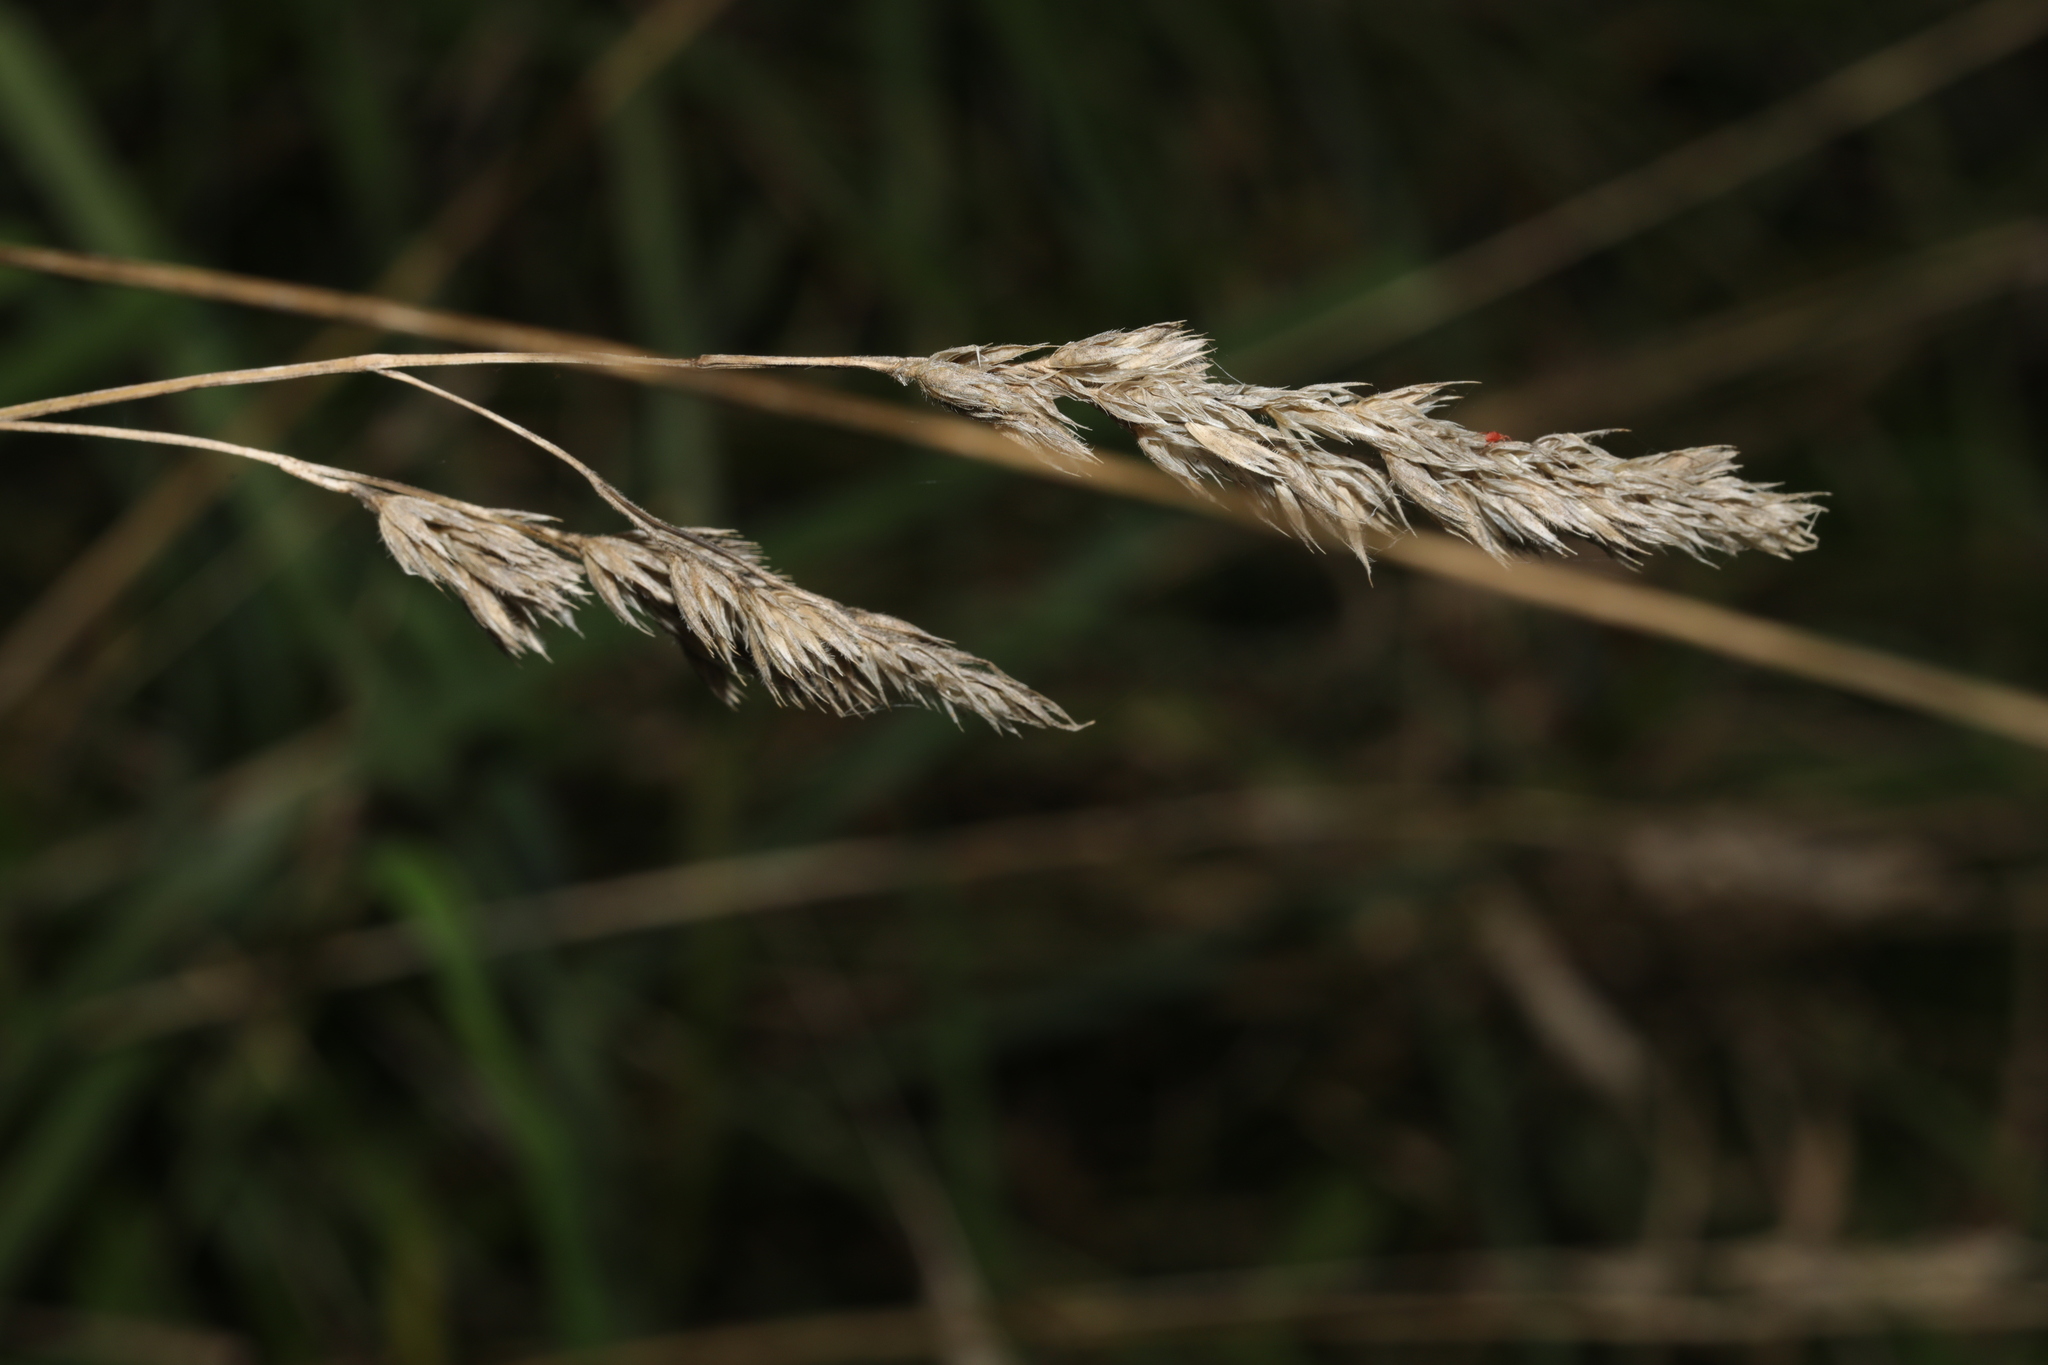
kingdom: Plantae
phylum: Tracheophyta
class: Liliopsida
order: Poales
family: Poaceae
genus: Dactylis
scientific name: Dactylis glomerata
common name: Orchardgrass
